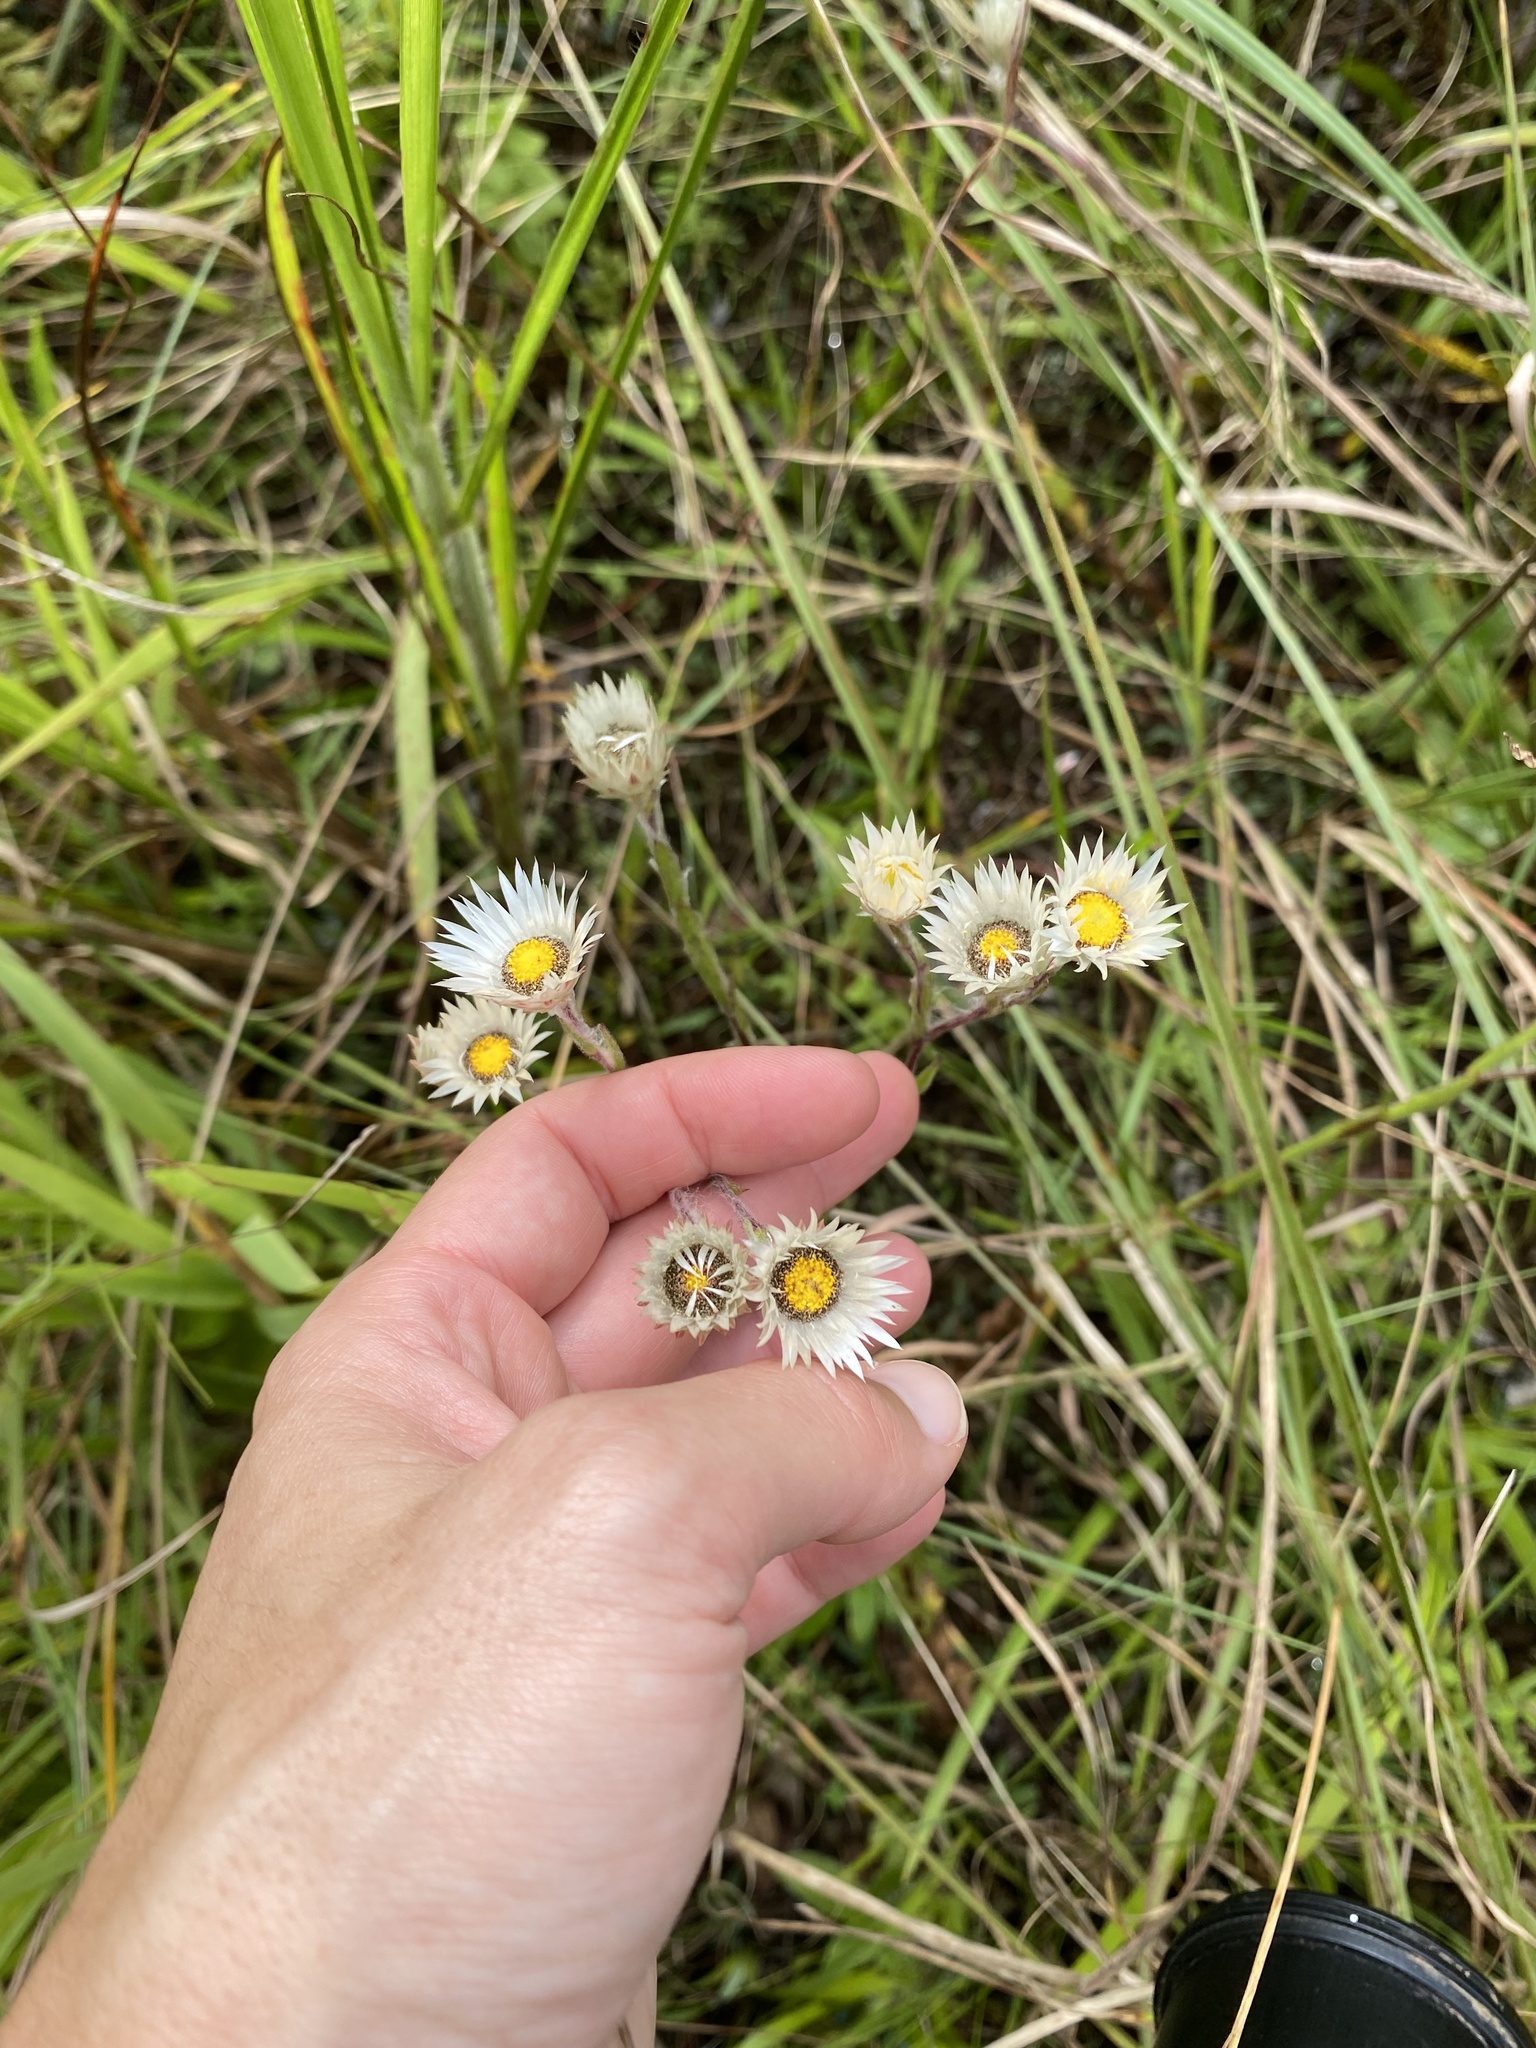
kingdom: Plantae
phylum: Tracheophyta
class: Magnoliopsida
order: Asterales
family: Asteraceae
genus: Helichrysum
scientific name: Helichrysum adenocarpum
